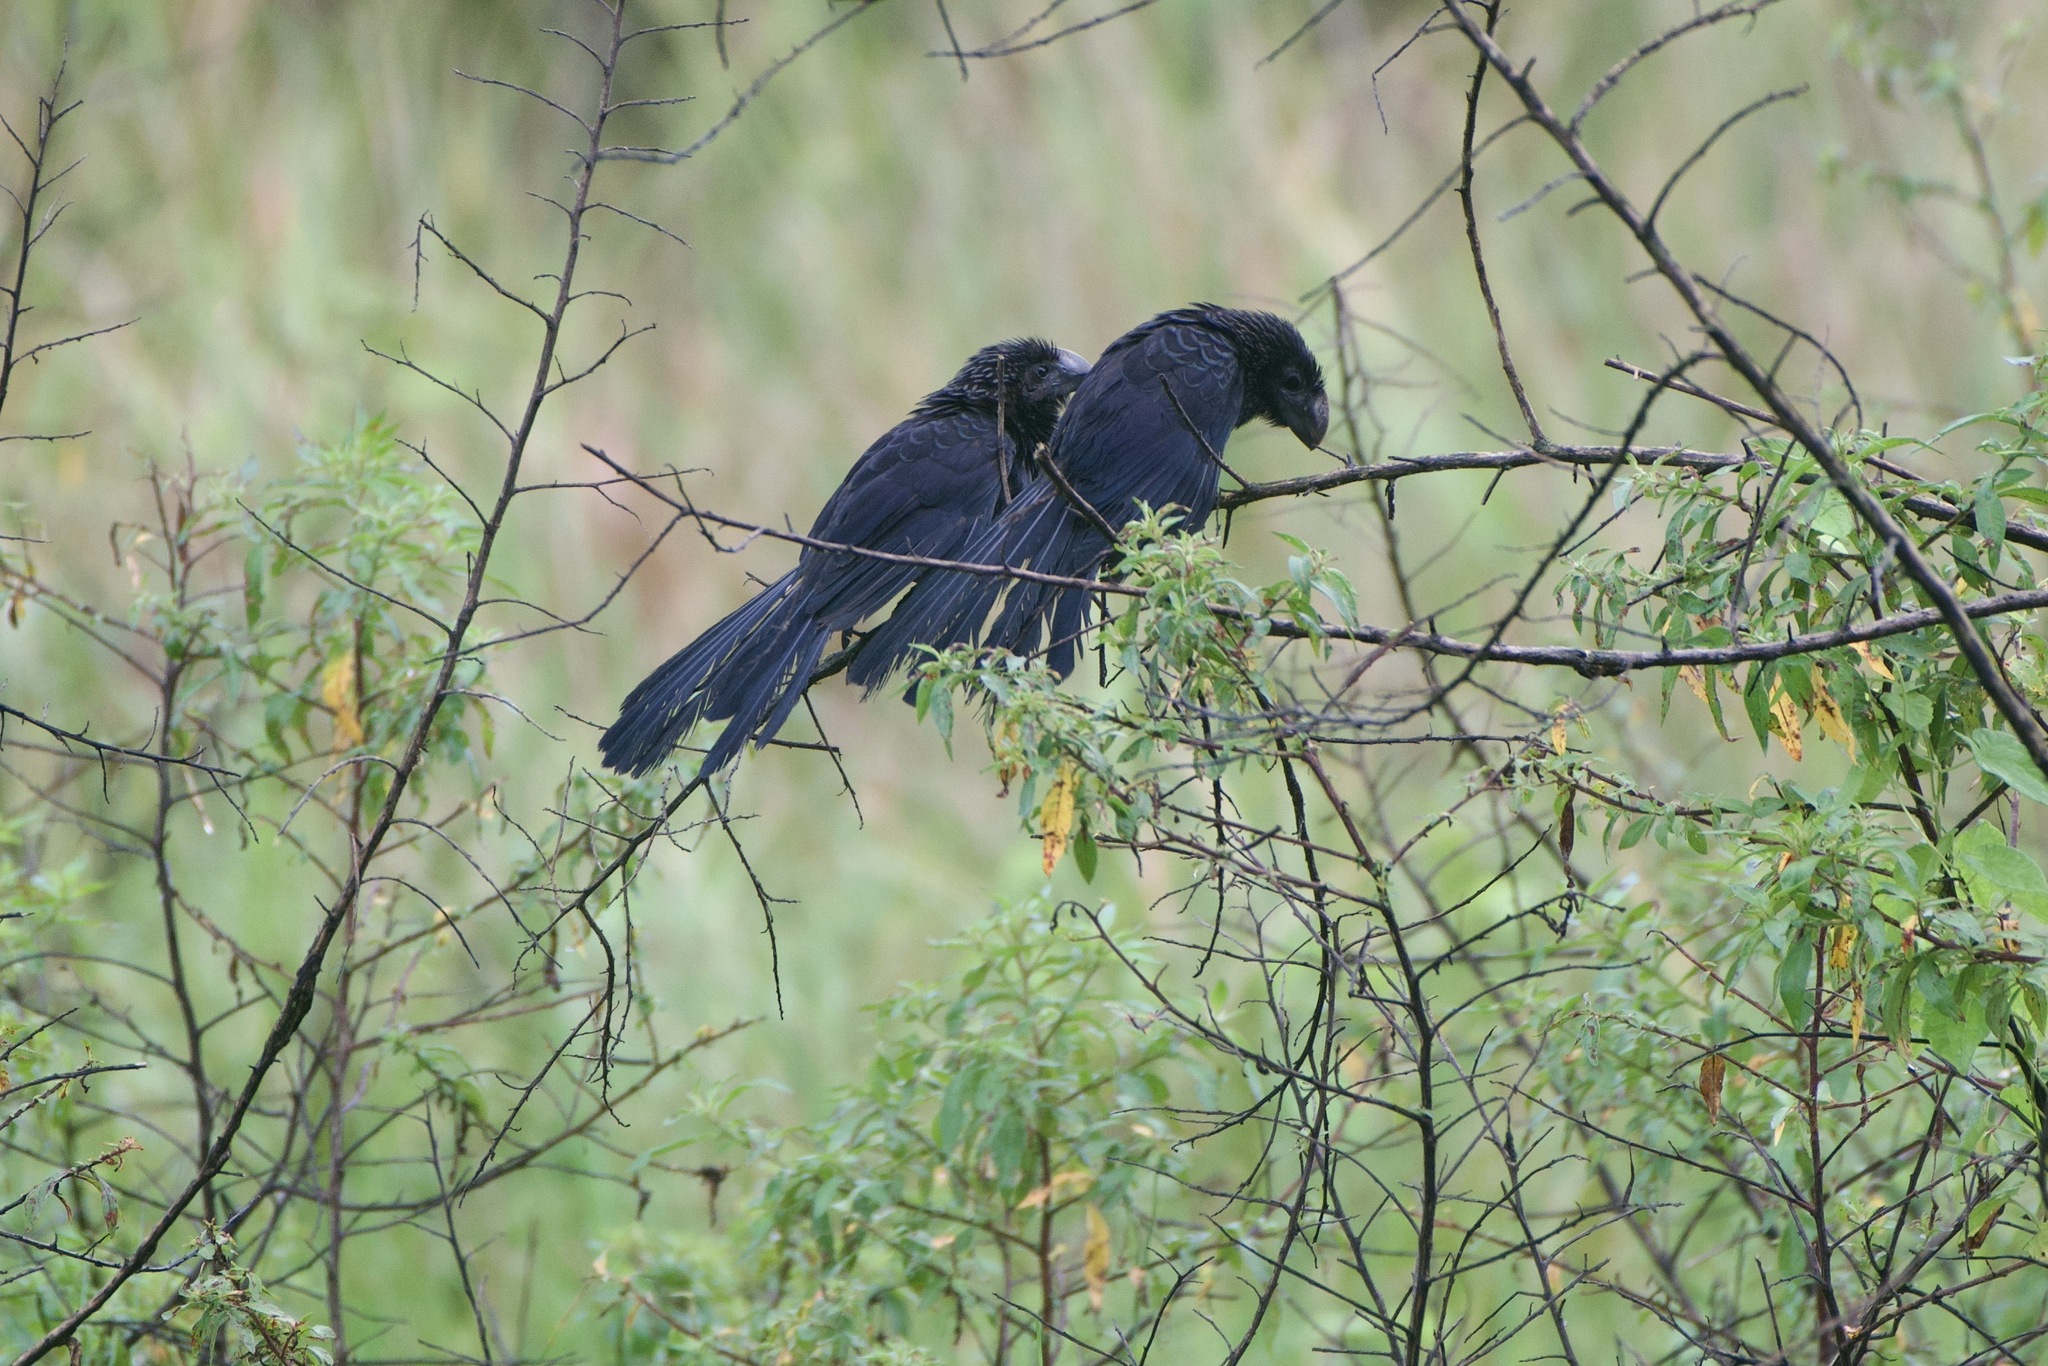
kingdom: Animalia
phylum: Chordata
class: Aves
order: Cuculiformes
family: Cuculidae
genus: Crotophaga
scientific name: Crotophaga ani
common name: Smooth-billed ani
